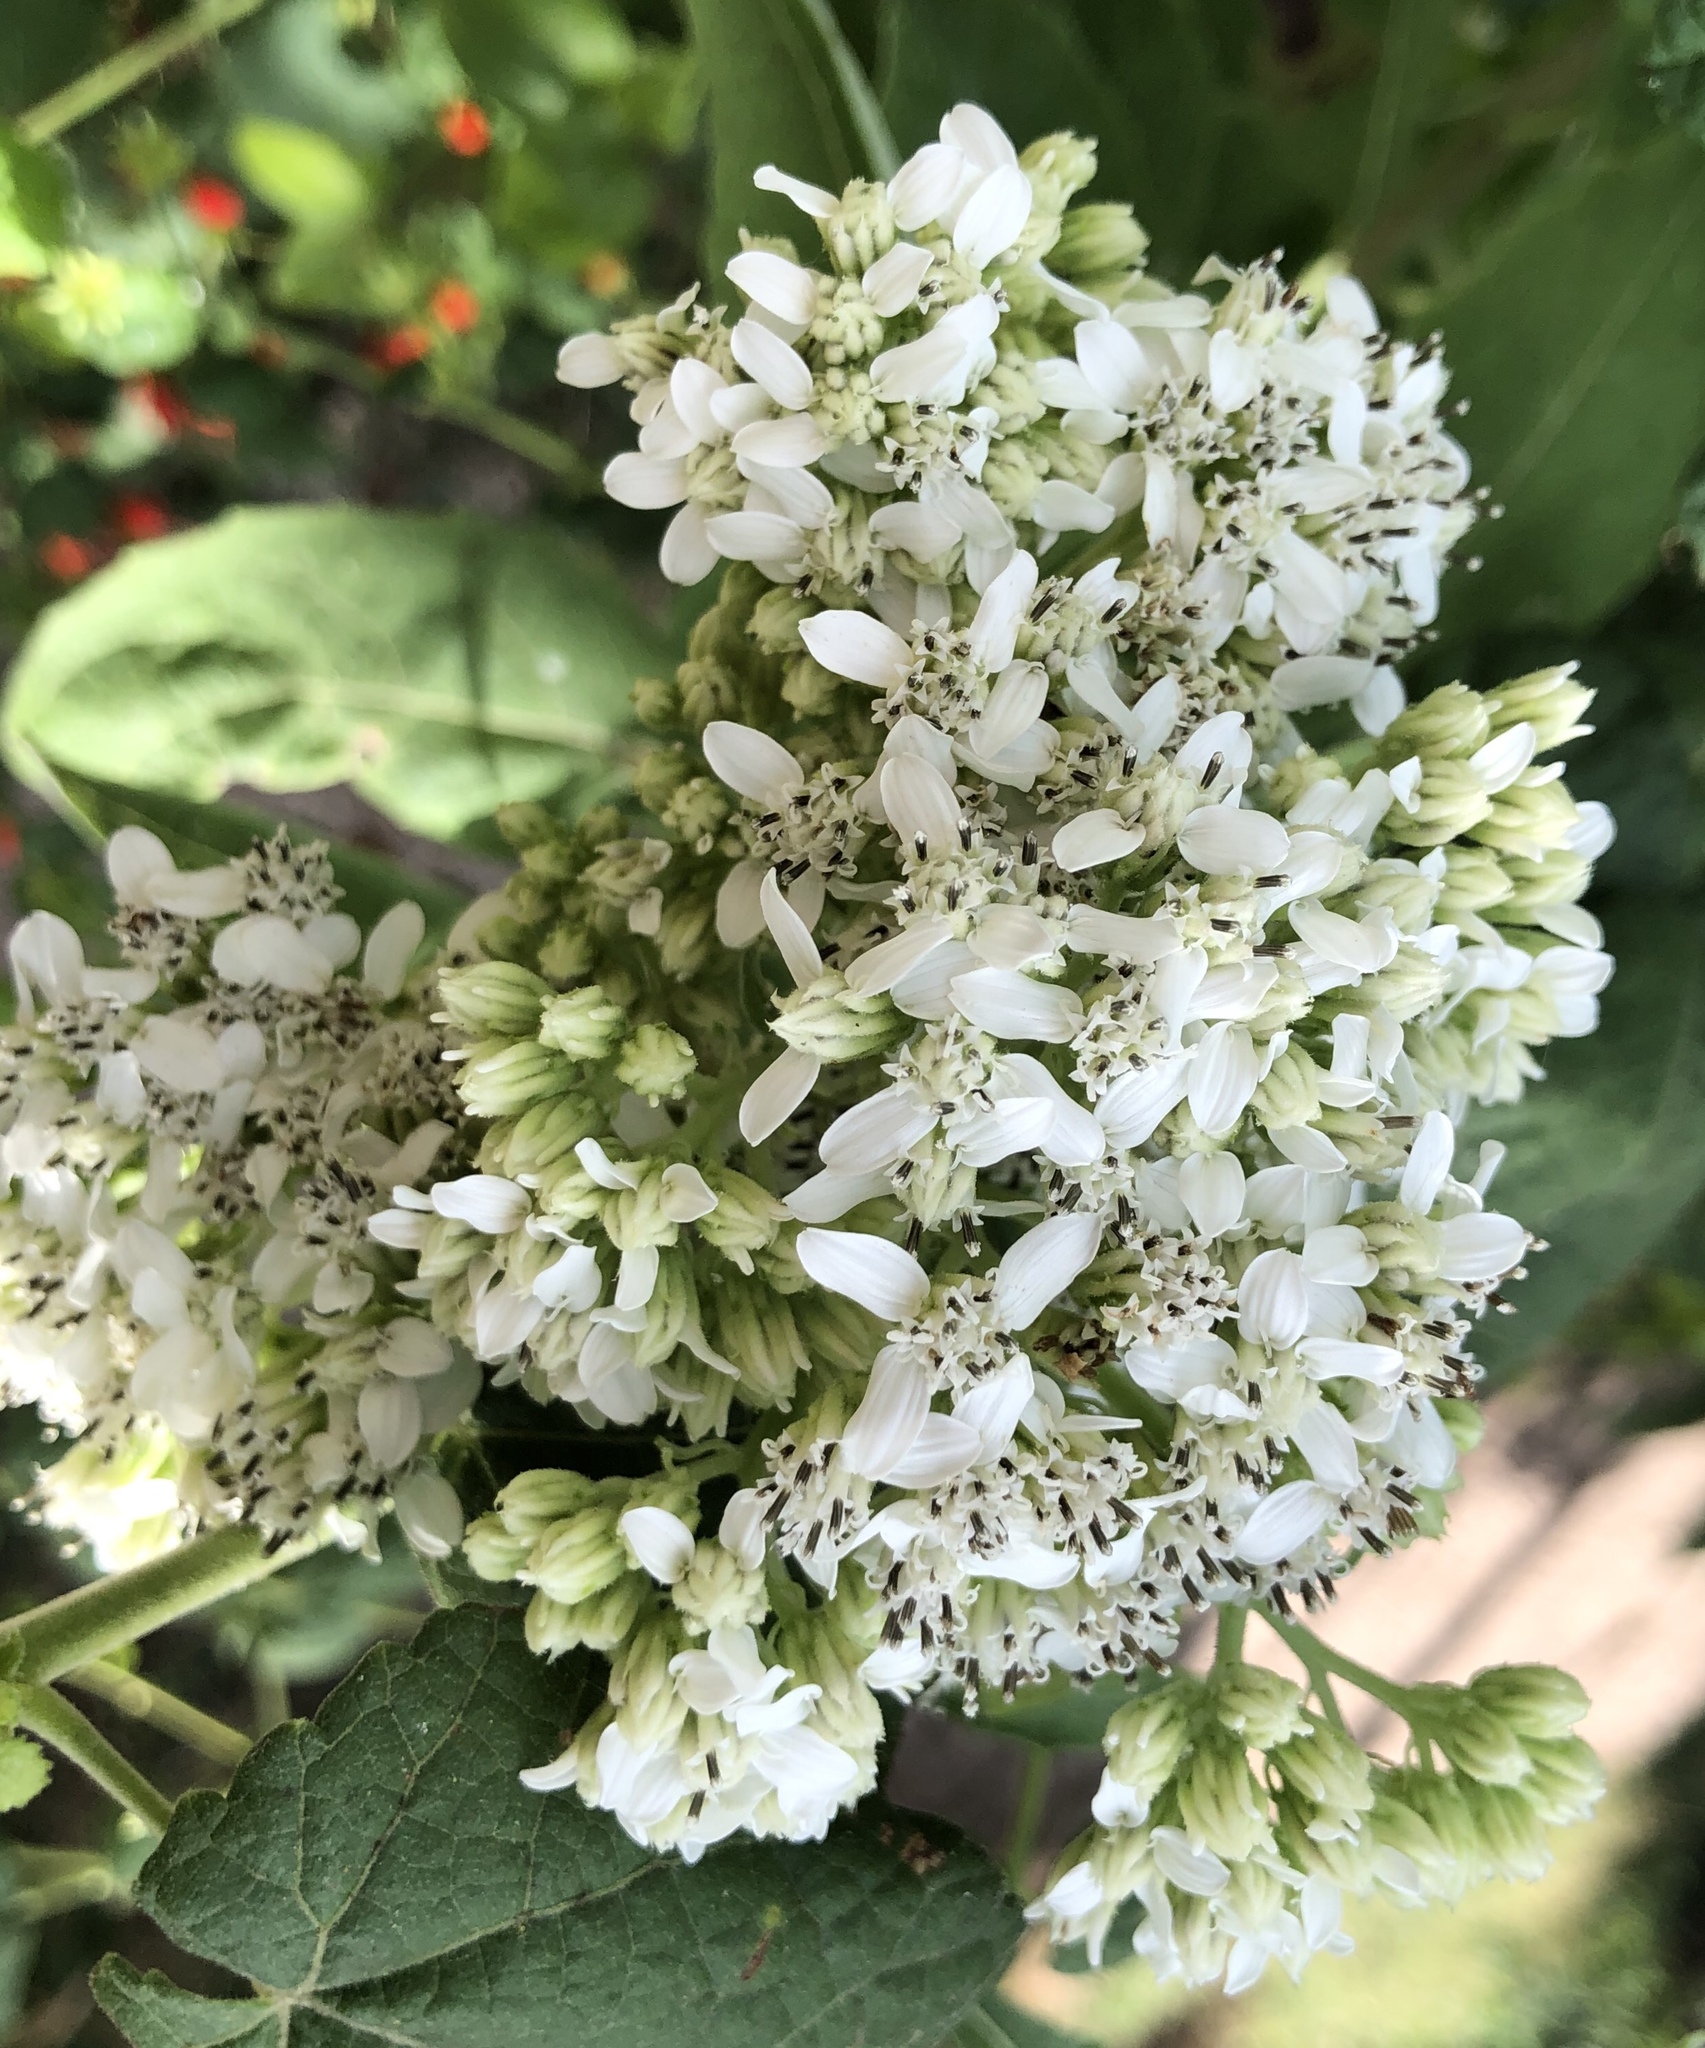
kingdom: Plantae
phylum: Tracheophyta
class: Magnoliopsida
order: Asterales
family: Asteraceae
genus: Verbesina
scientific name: Verbesina virginica
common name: Frostweed
